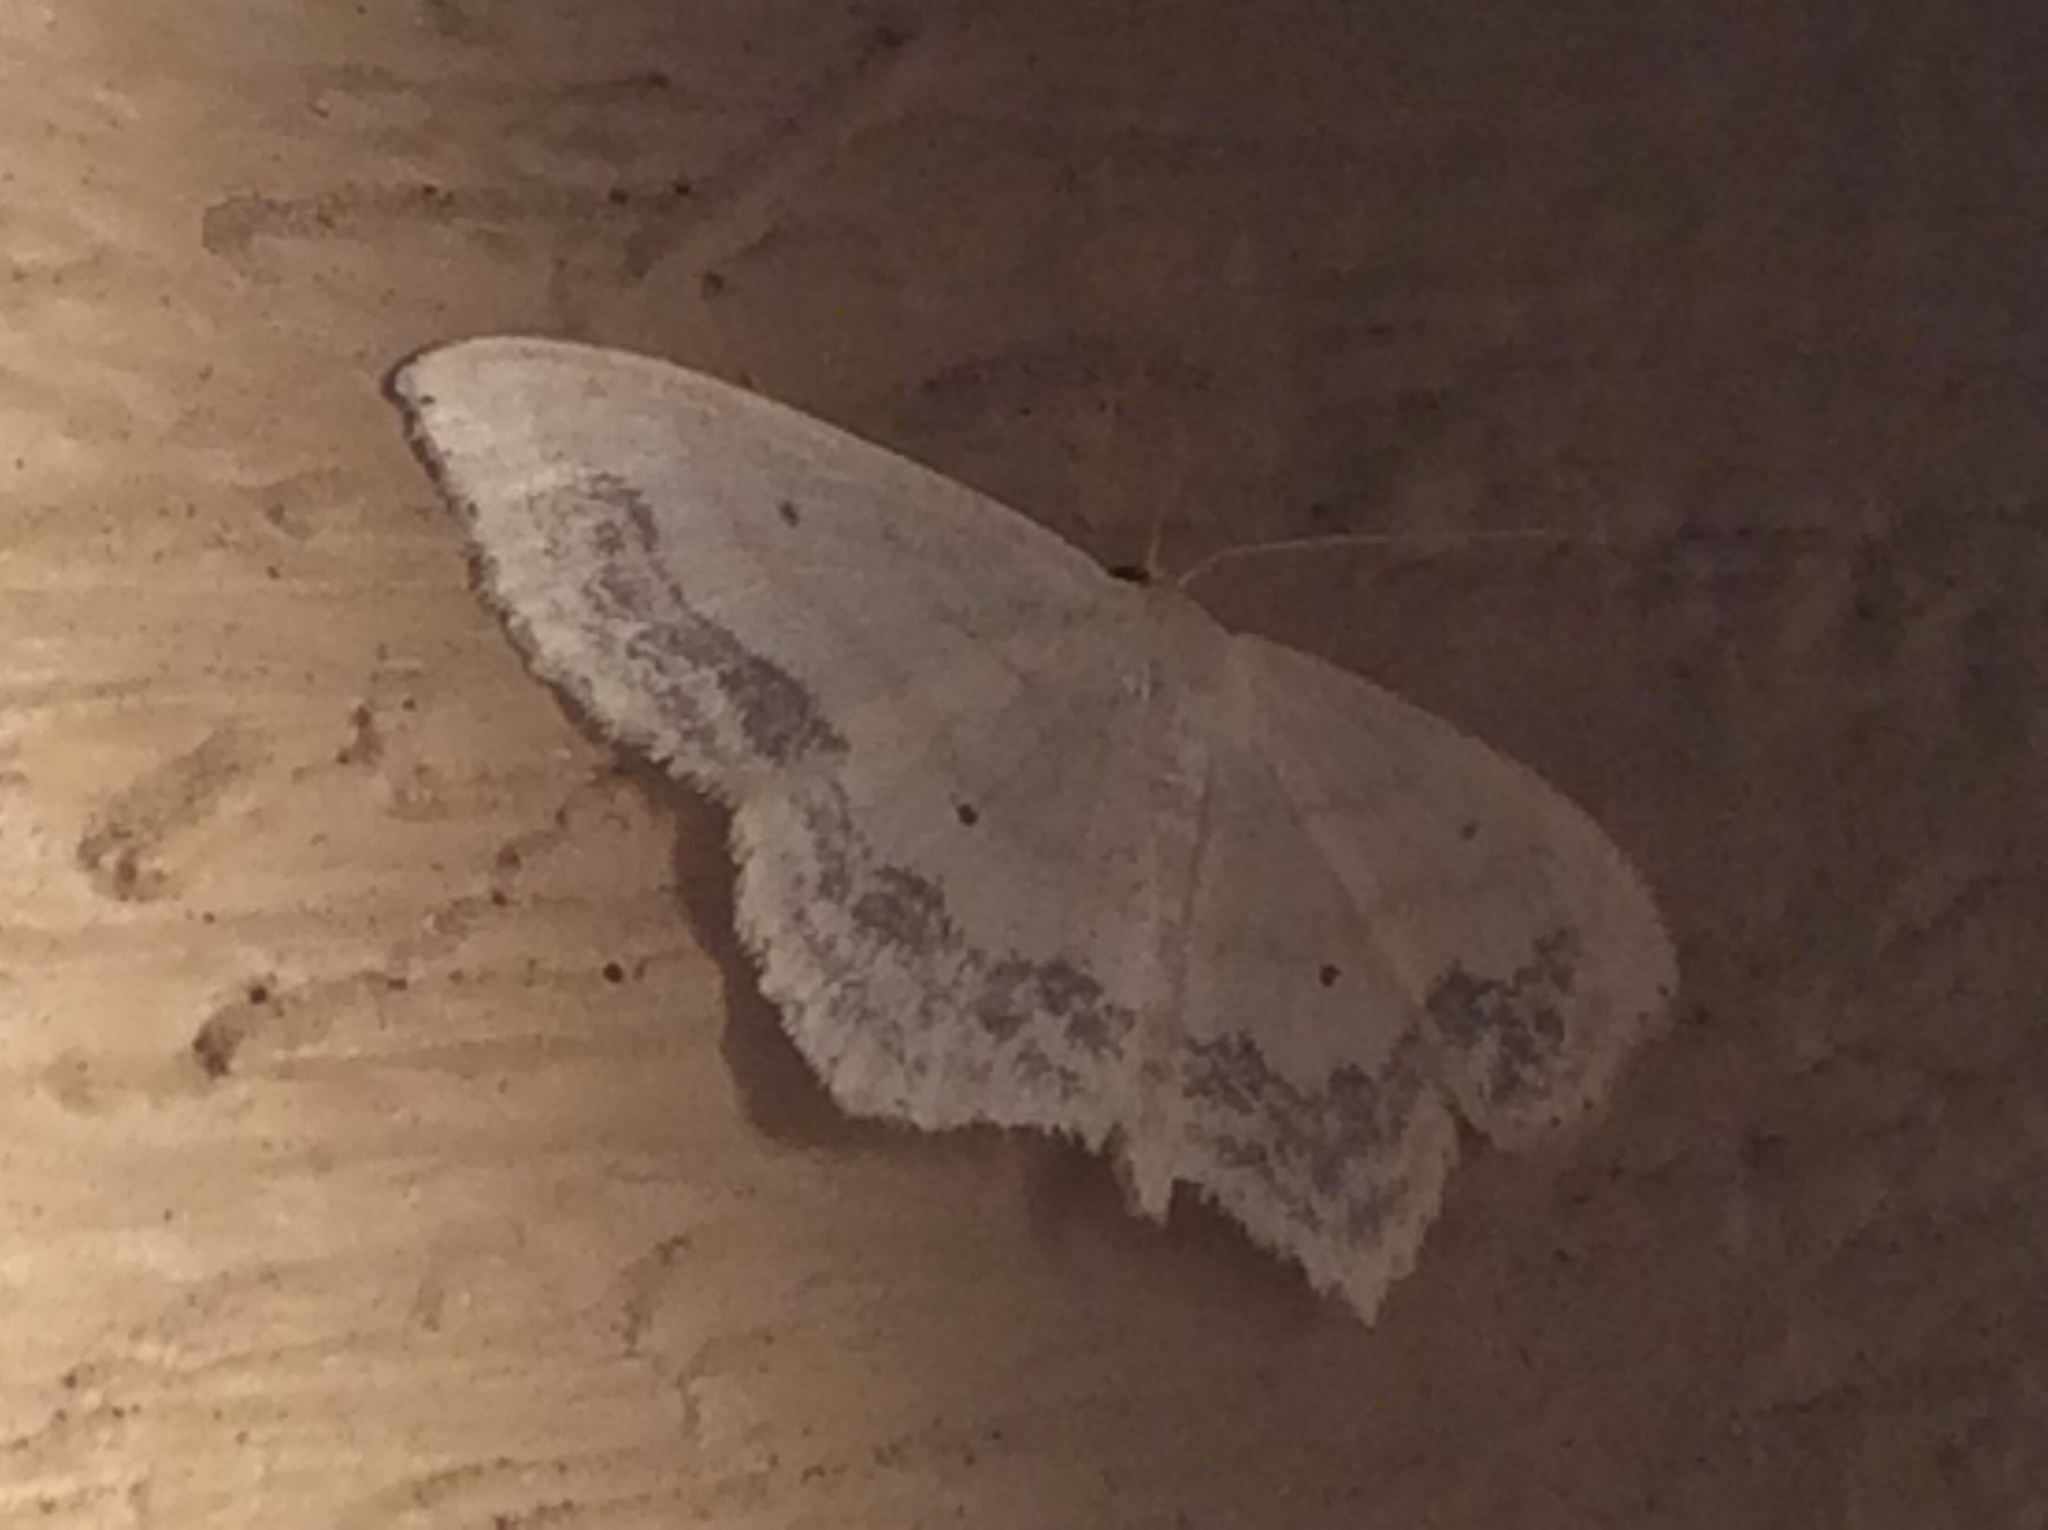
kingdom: Animalia
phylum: Arthropoda
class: Insecta
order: Lepidoptera
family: Geometridae
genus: Scopula
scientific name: Scopula limboundata
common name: Large lace border
